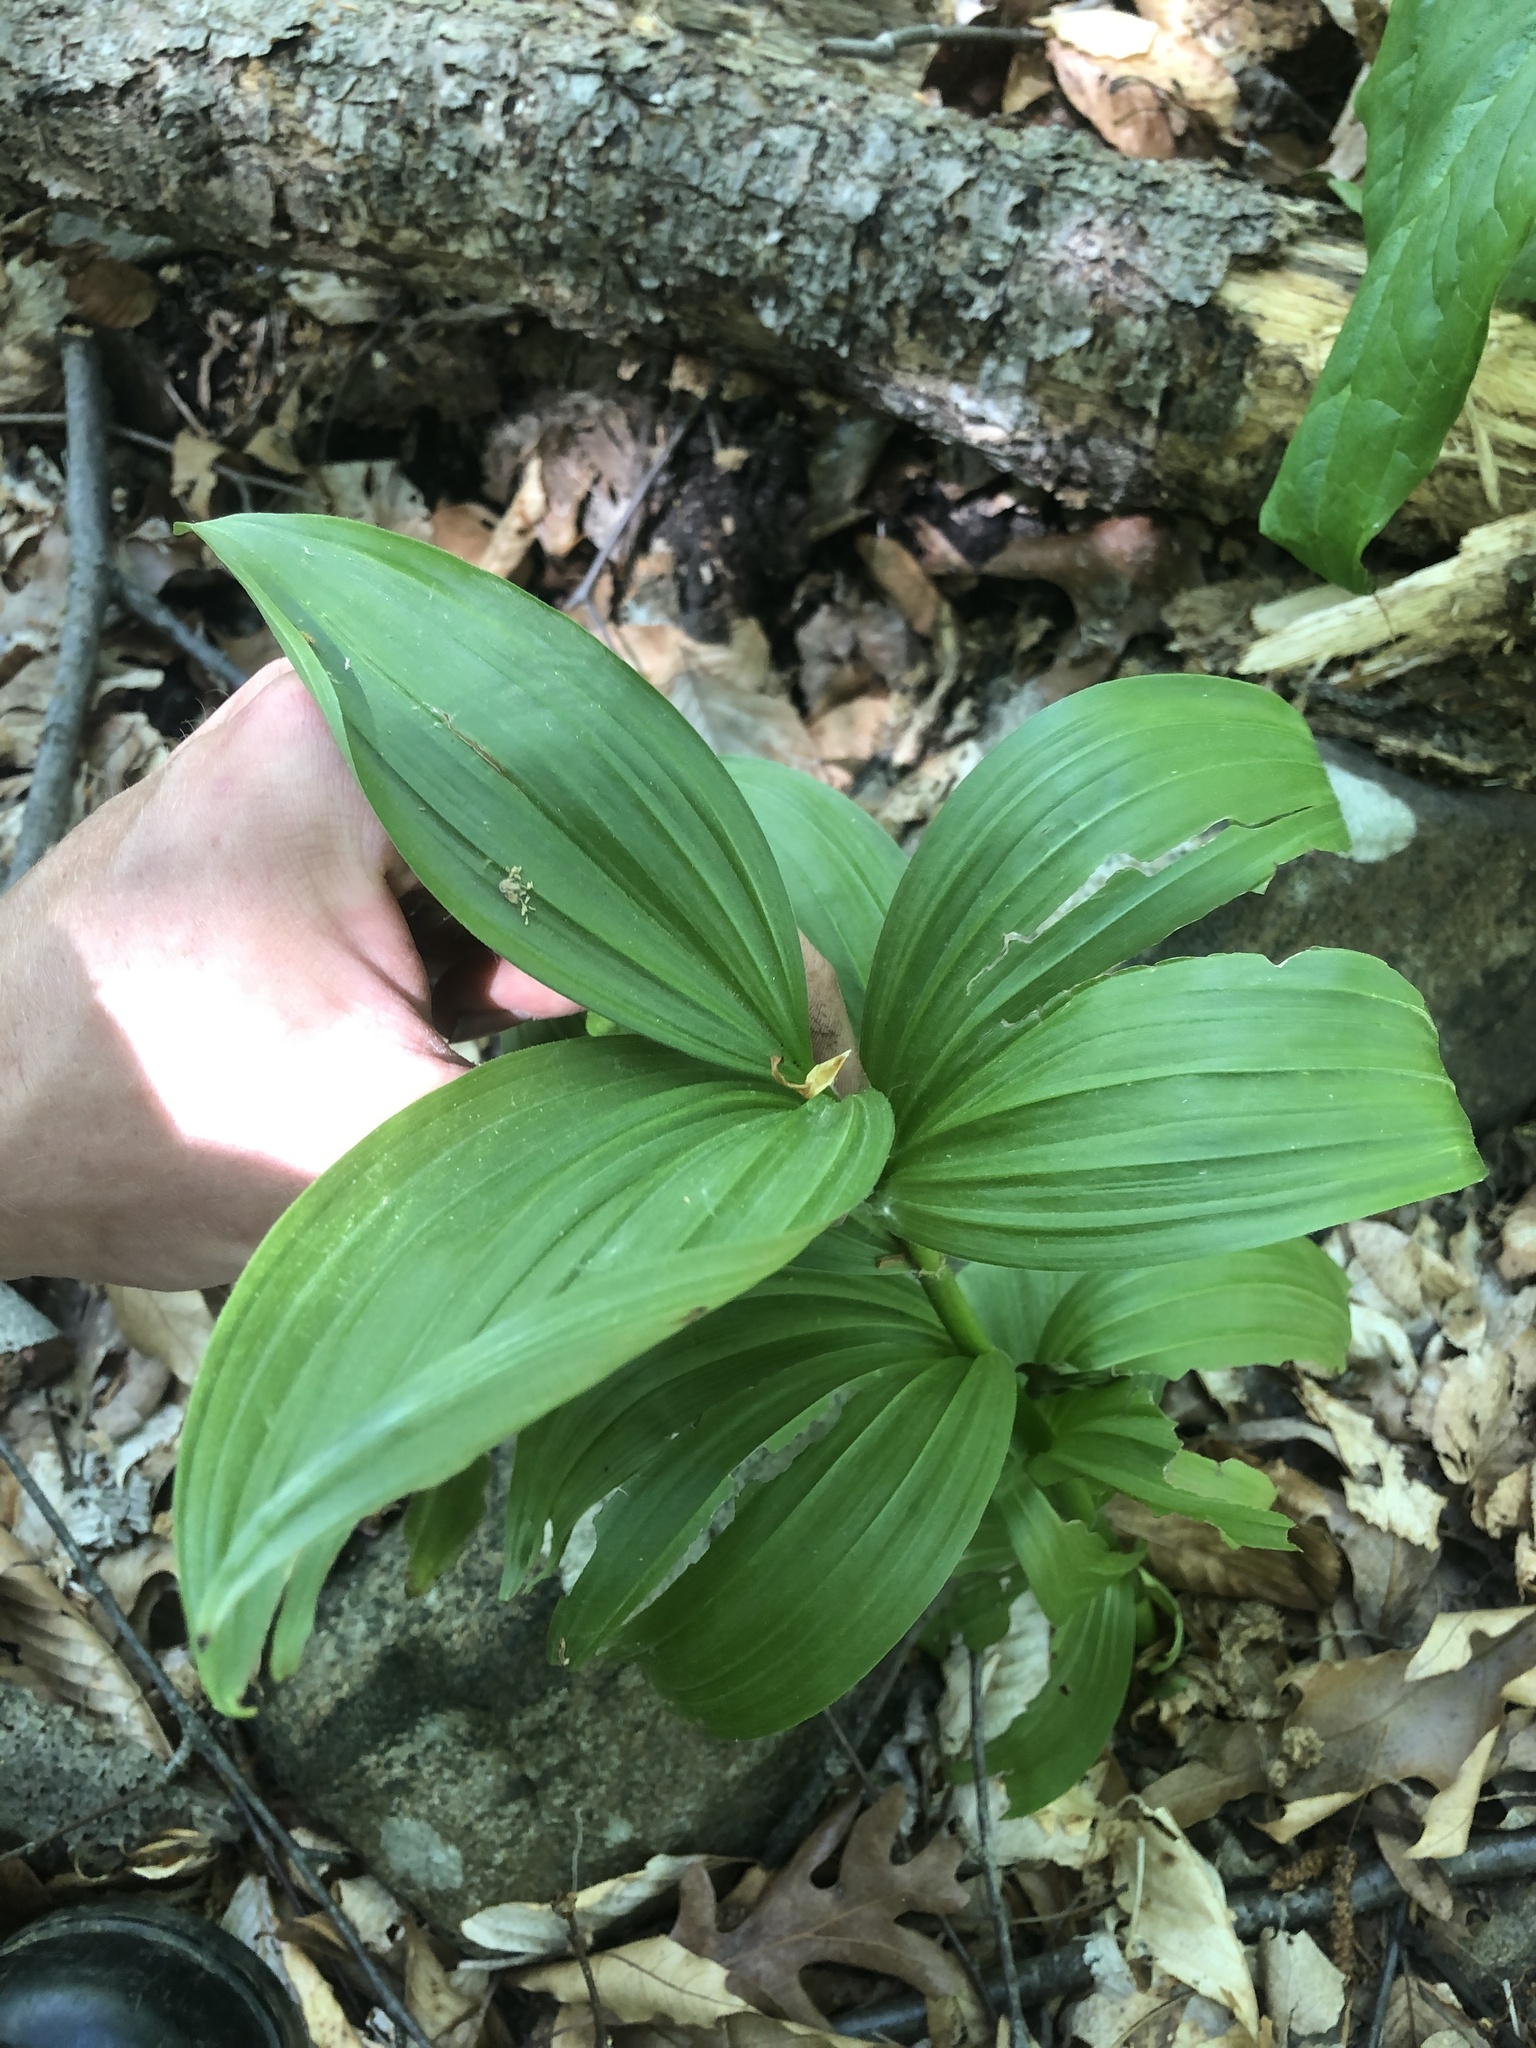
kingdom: Plantae
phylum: Tracheophyta
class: Liliopsida
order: Liliales
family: Melanthiaceae
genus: Veratrum
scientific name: Veratrum viride
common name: American false hellebore
